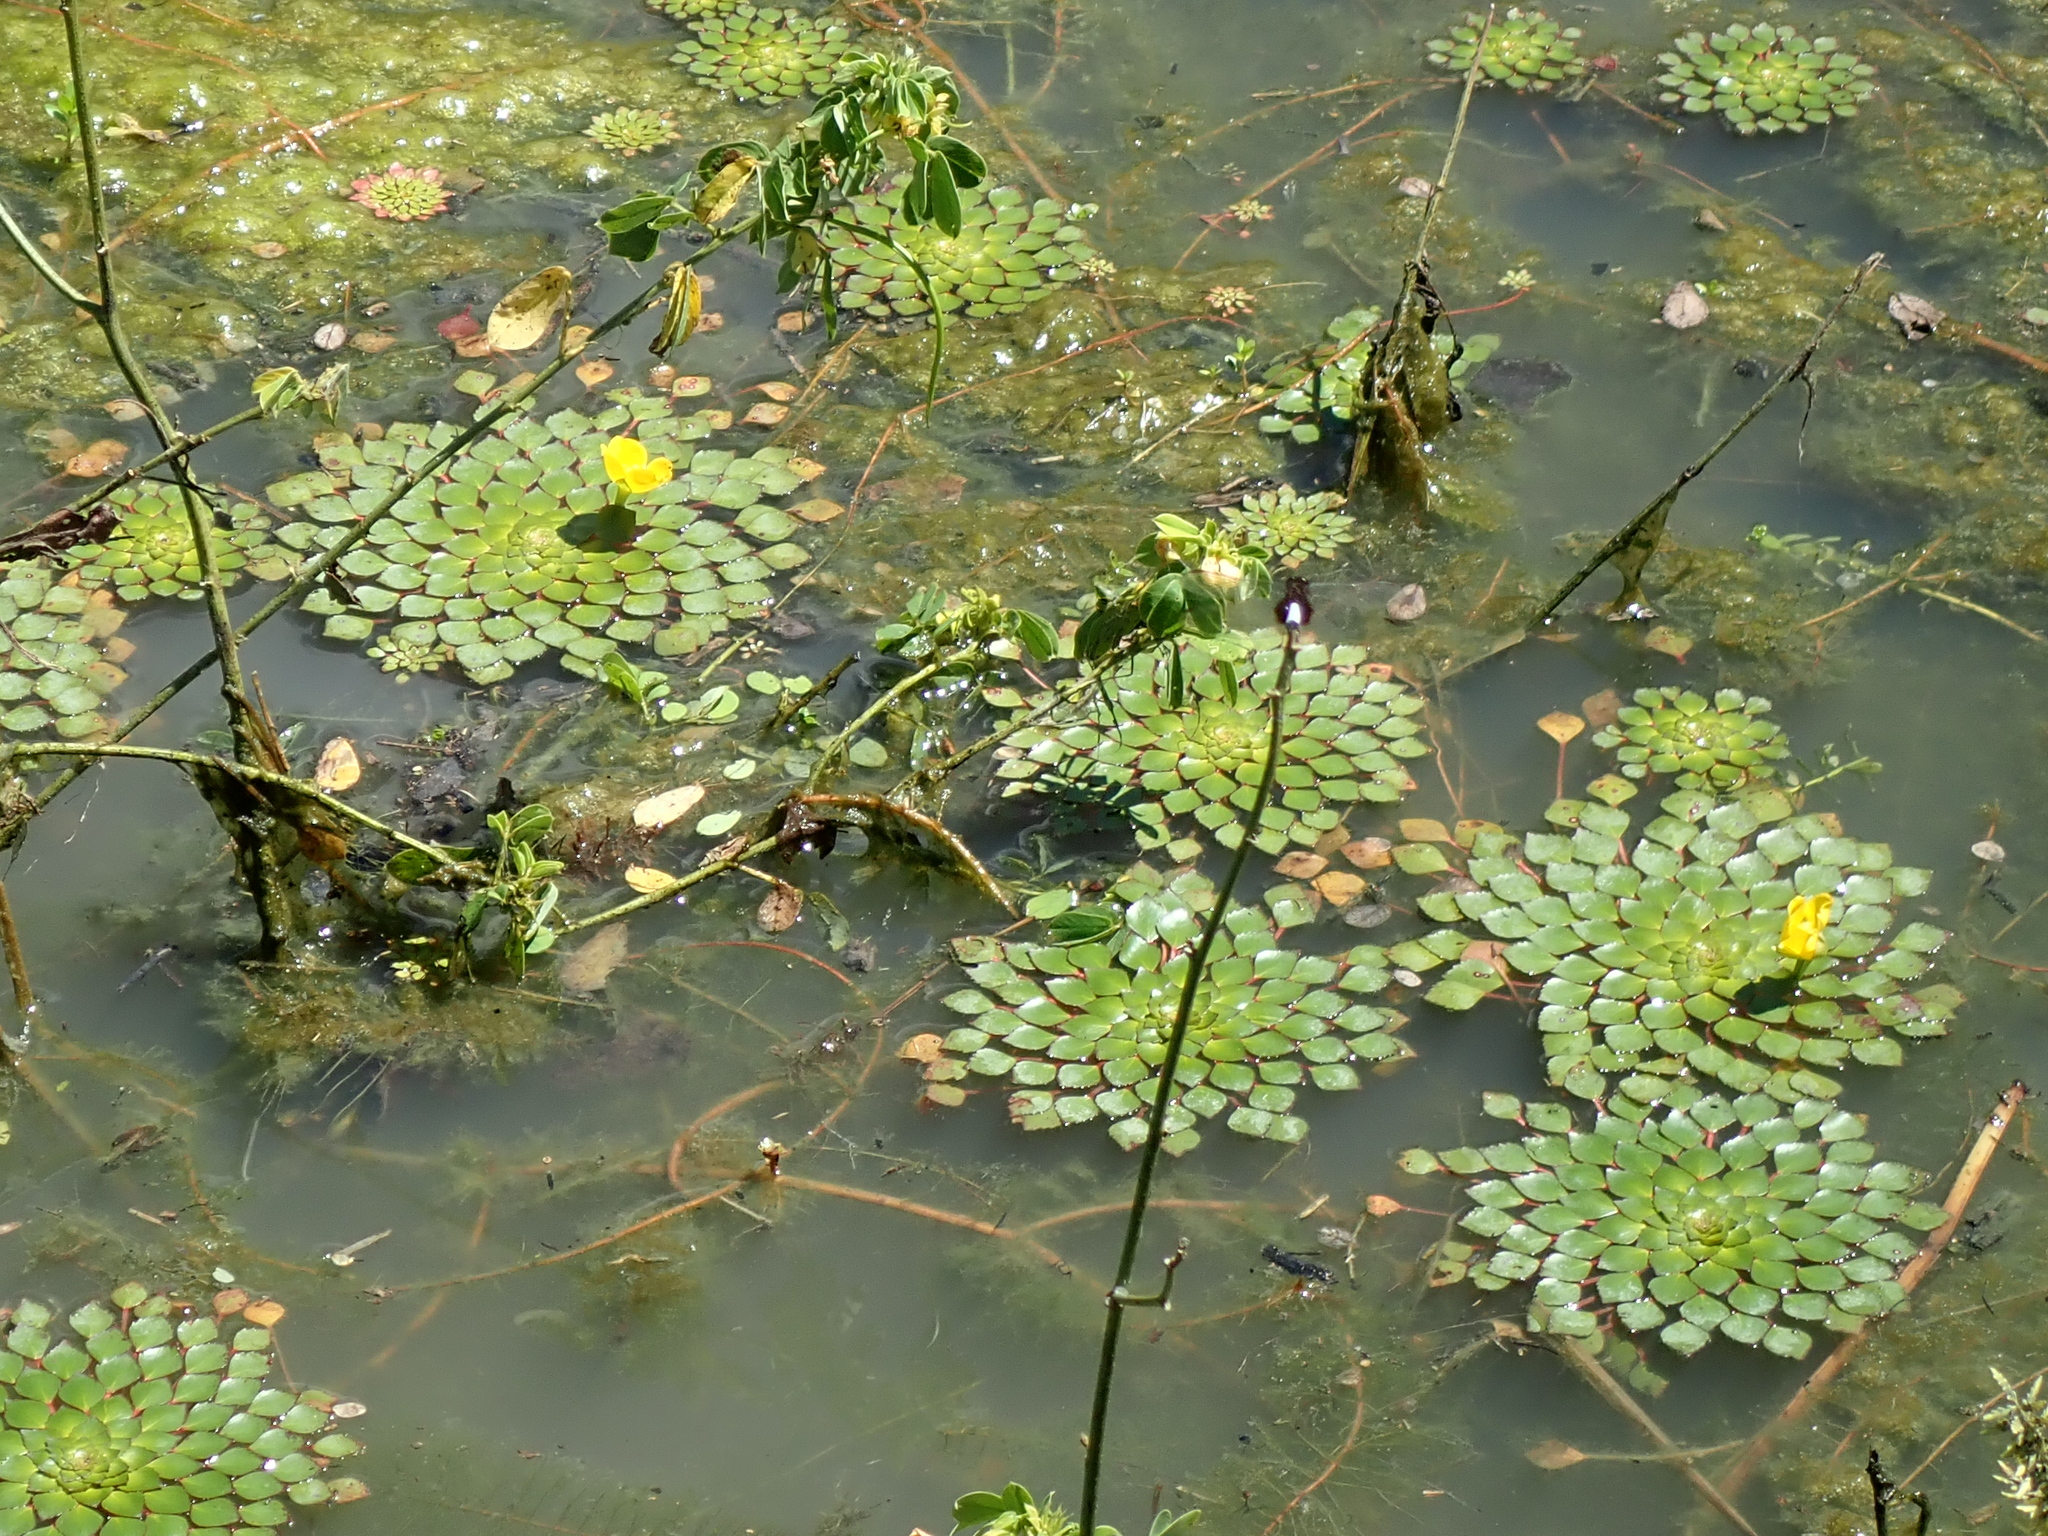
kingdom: Plantae
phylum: Tracheophyta
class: Magnoliopsida
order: Myrtales
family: Onagraceae
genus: Ludwigia
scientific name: Ludwigia sedioides
